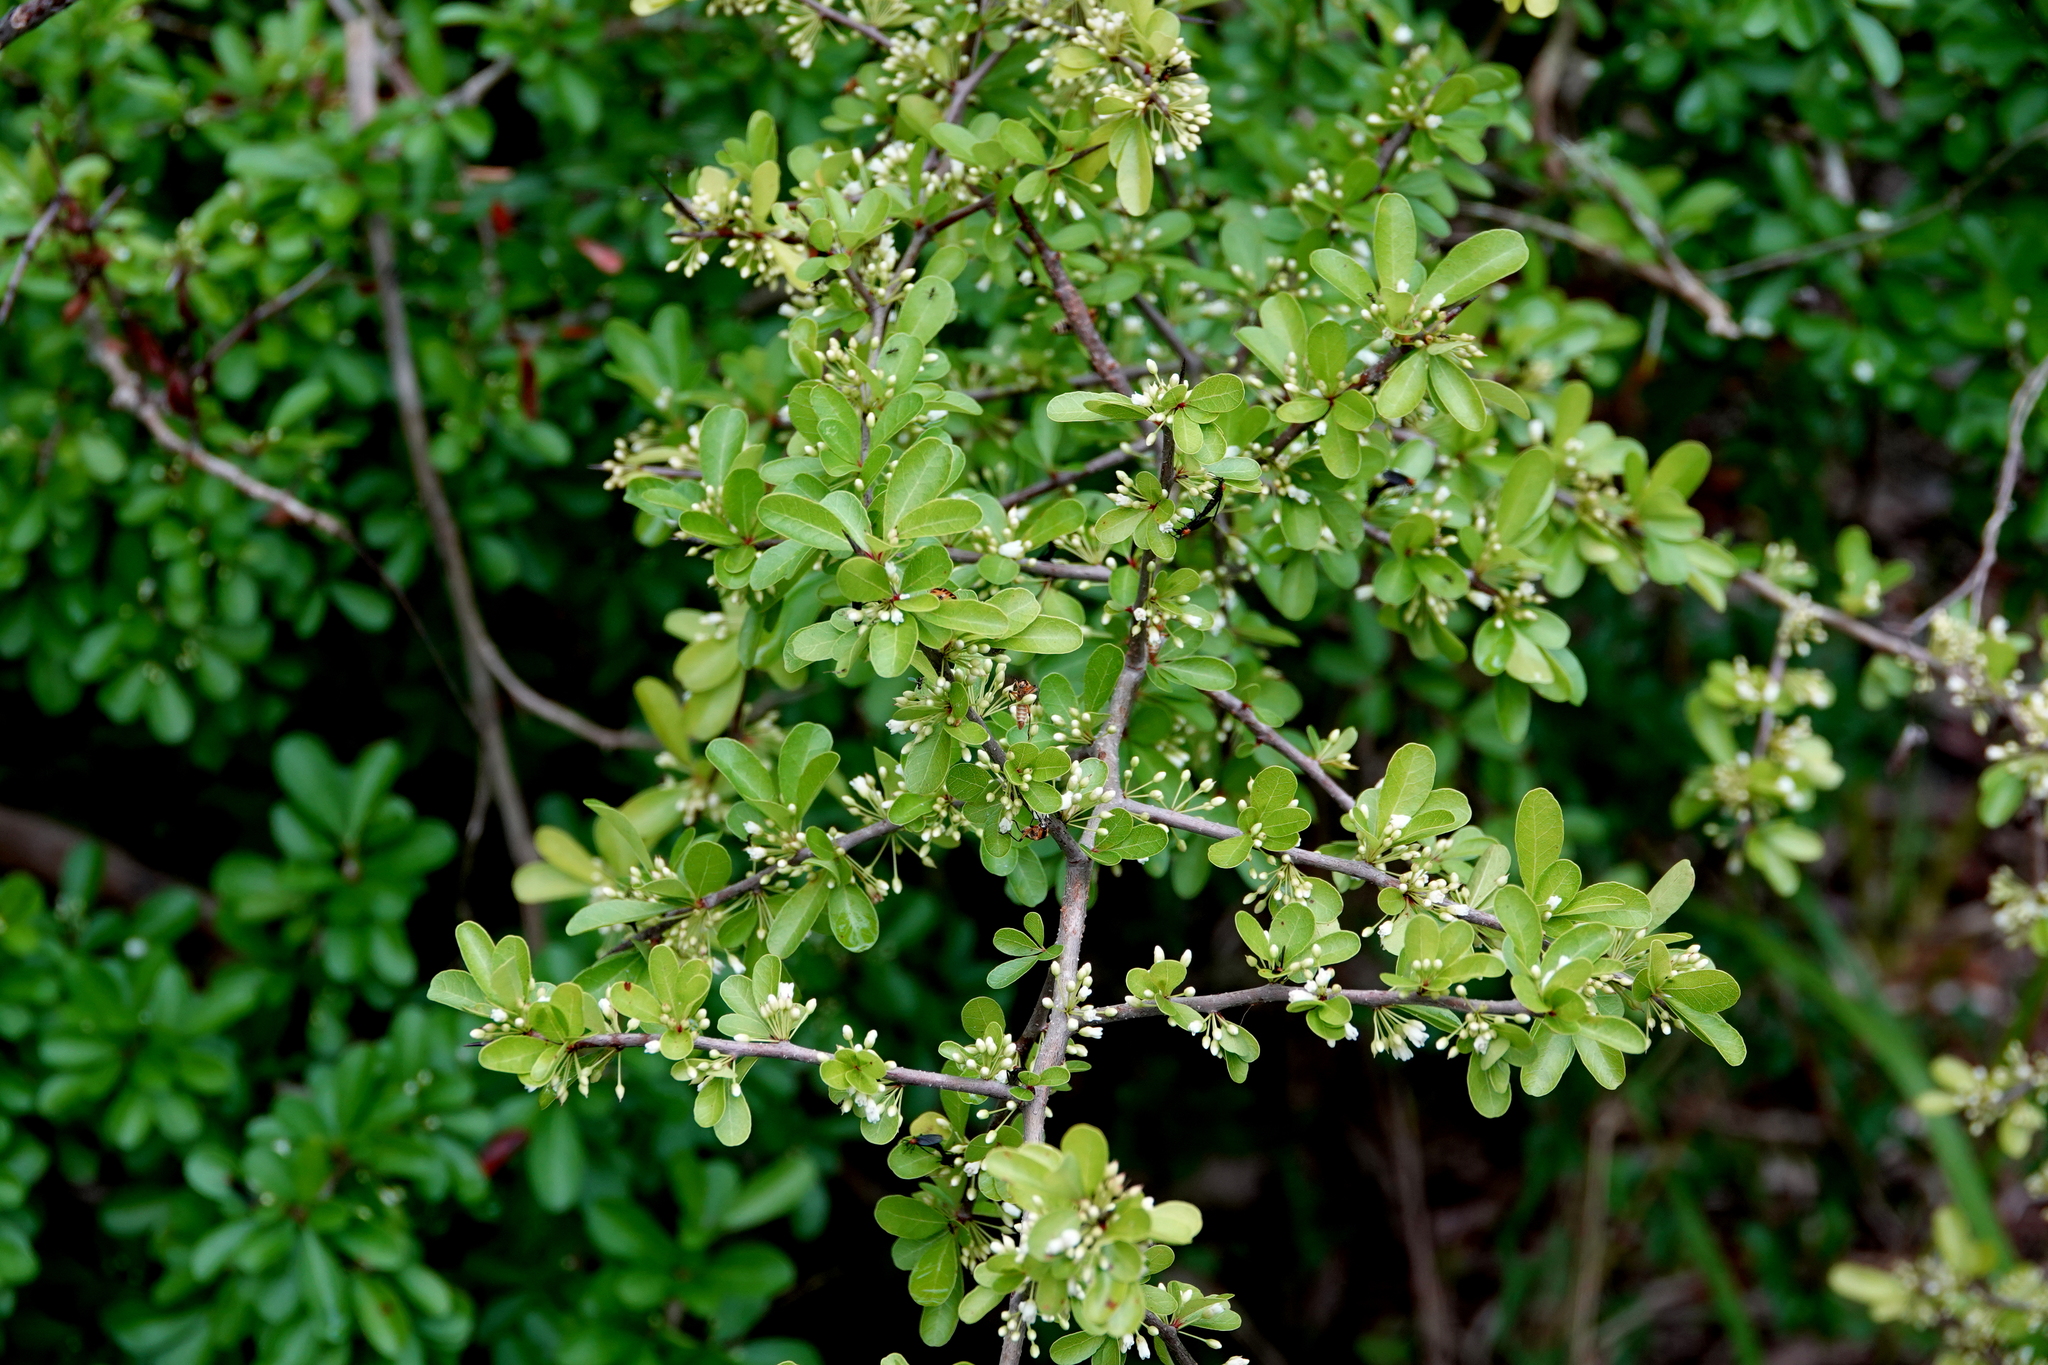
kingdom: Plantae
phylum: Tracheophyta
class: Magnoliopsida
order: Ericales
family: Sapotaceae
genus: Sideroxylon
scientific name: Sideroxylon reclinatum
